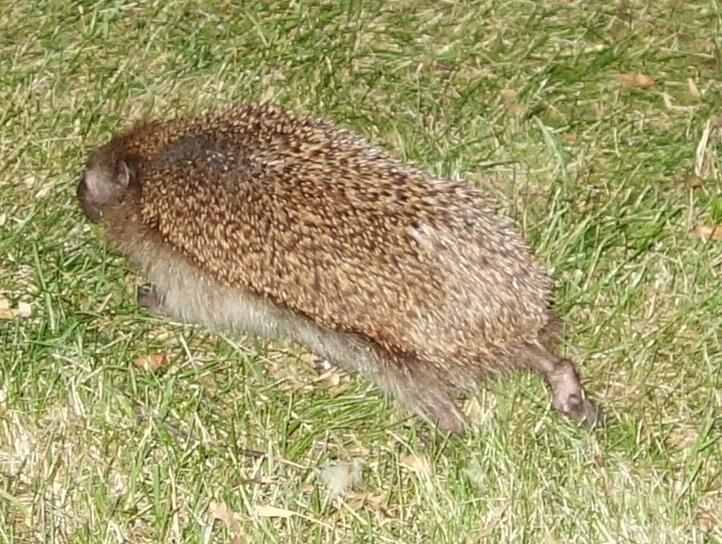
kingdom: Animalia
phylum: Chordata
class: Mammalia
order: Erinaceomorpha
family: Erinaceidae
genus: Erinaceus
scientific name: Erinaceus europaeus
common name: West european hedgehog
